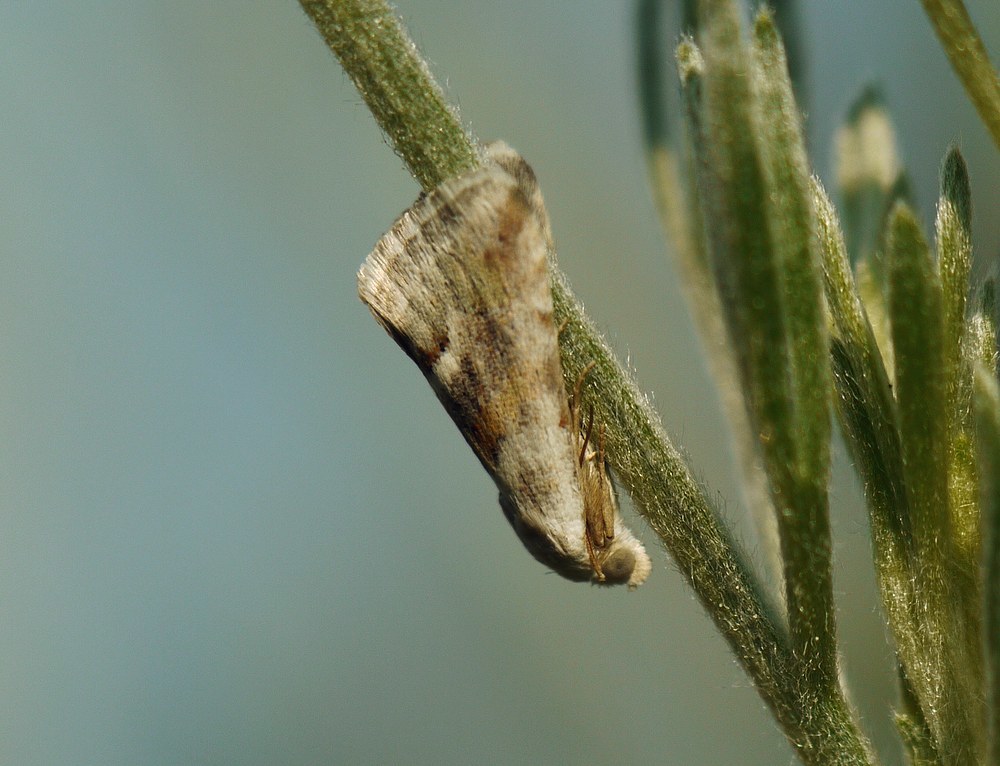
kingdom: Animalia
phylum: Arthropoda
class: Insecta
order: Lepidoptera
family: Noctuidae
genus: Eublemma
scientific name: Eublemma minutata
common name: Scarce marbled
